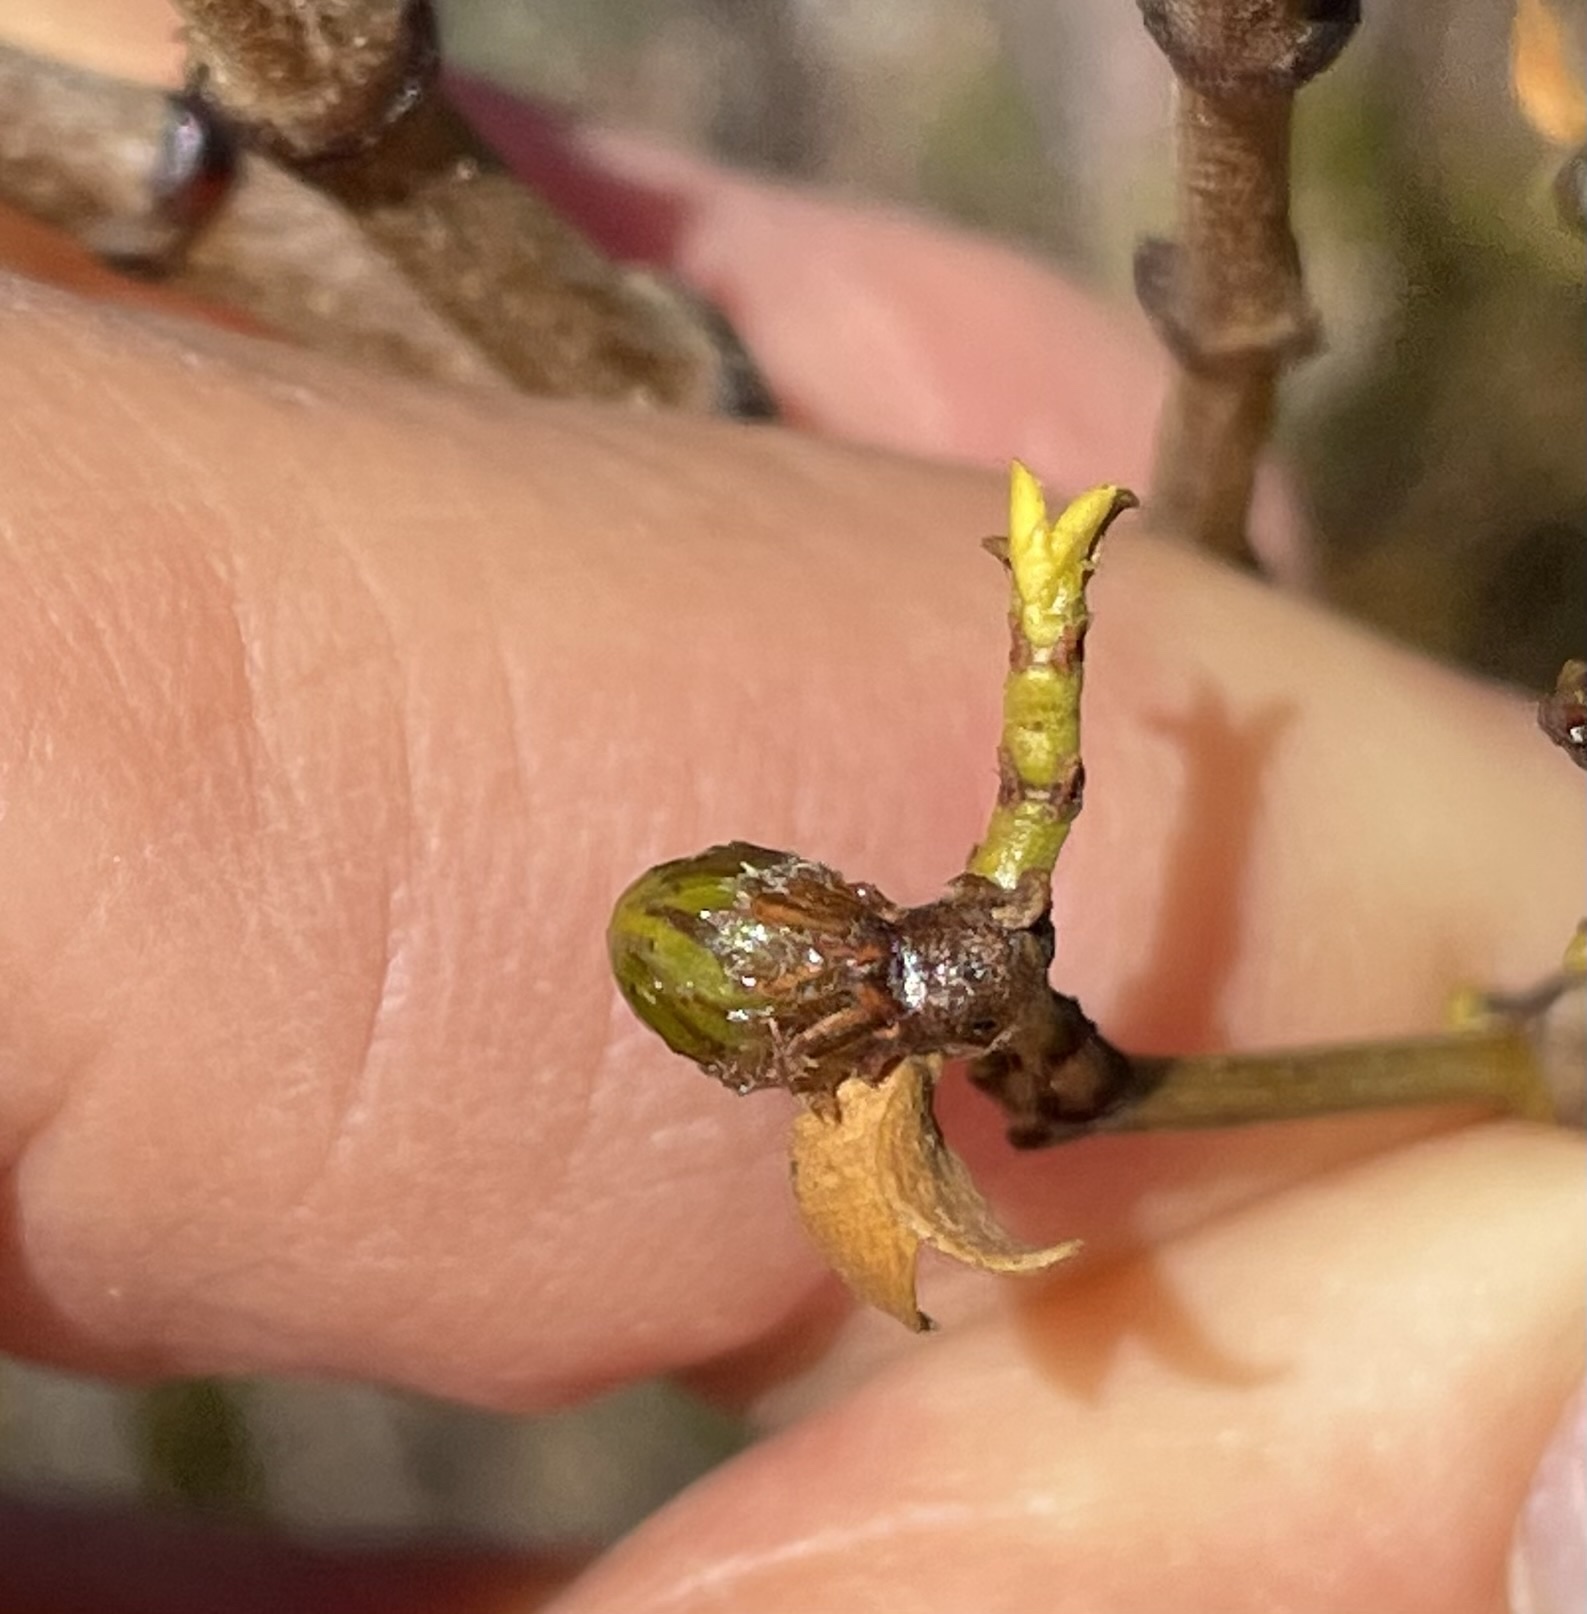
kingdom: Animalia
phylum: Arthropoda
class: Insecta
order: Diptera
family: Cecidomyiidae
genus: Asphondylia
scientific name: Asphondylia resinosa
